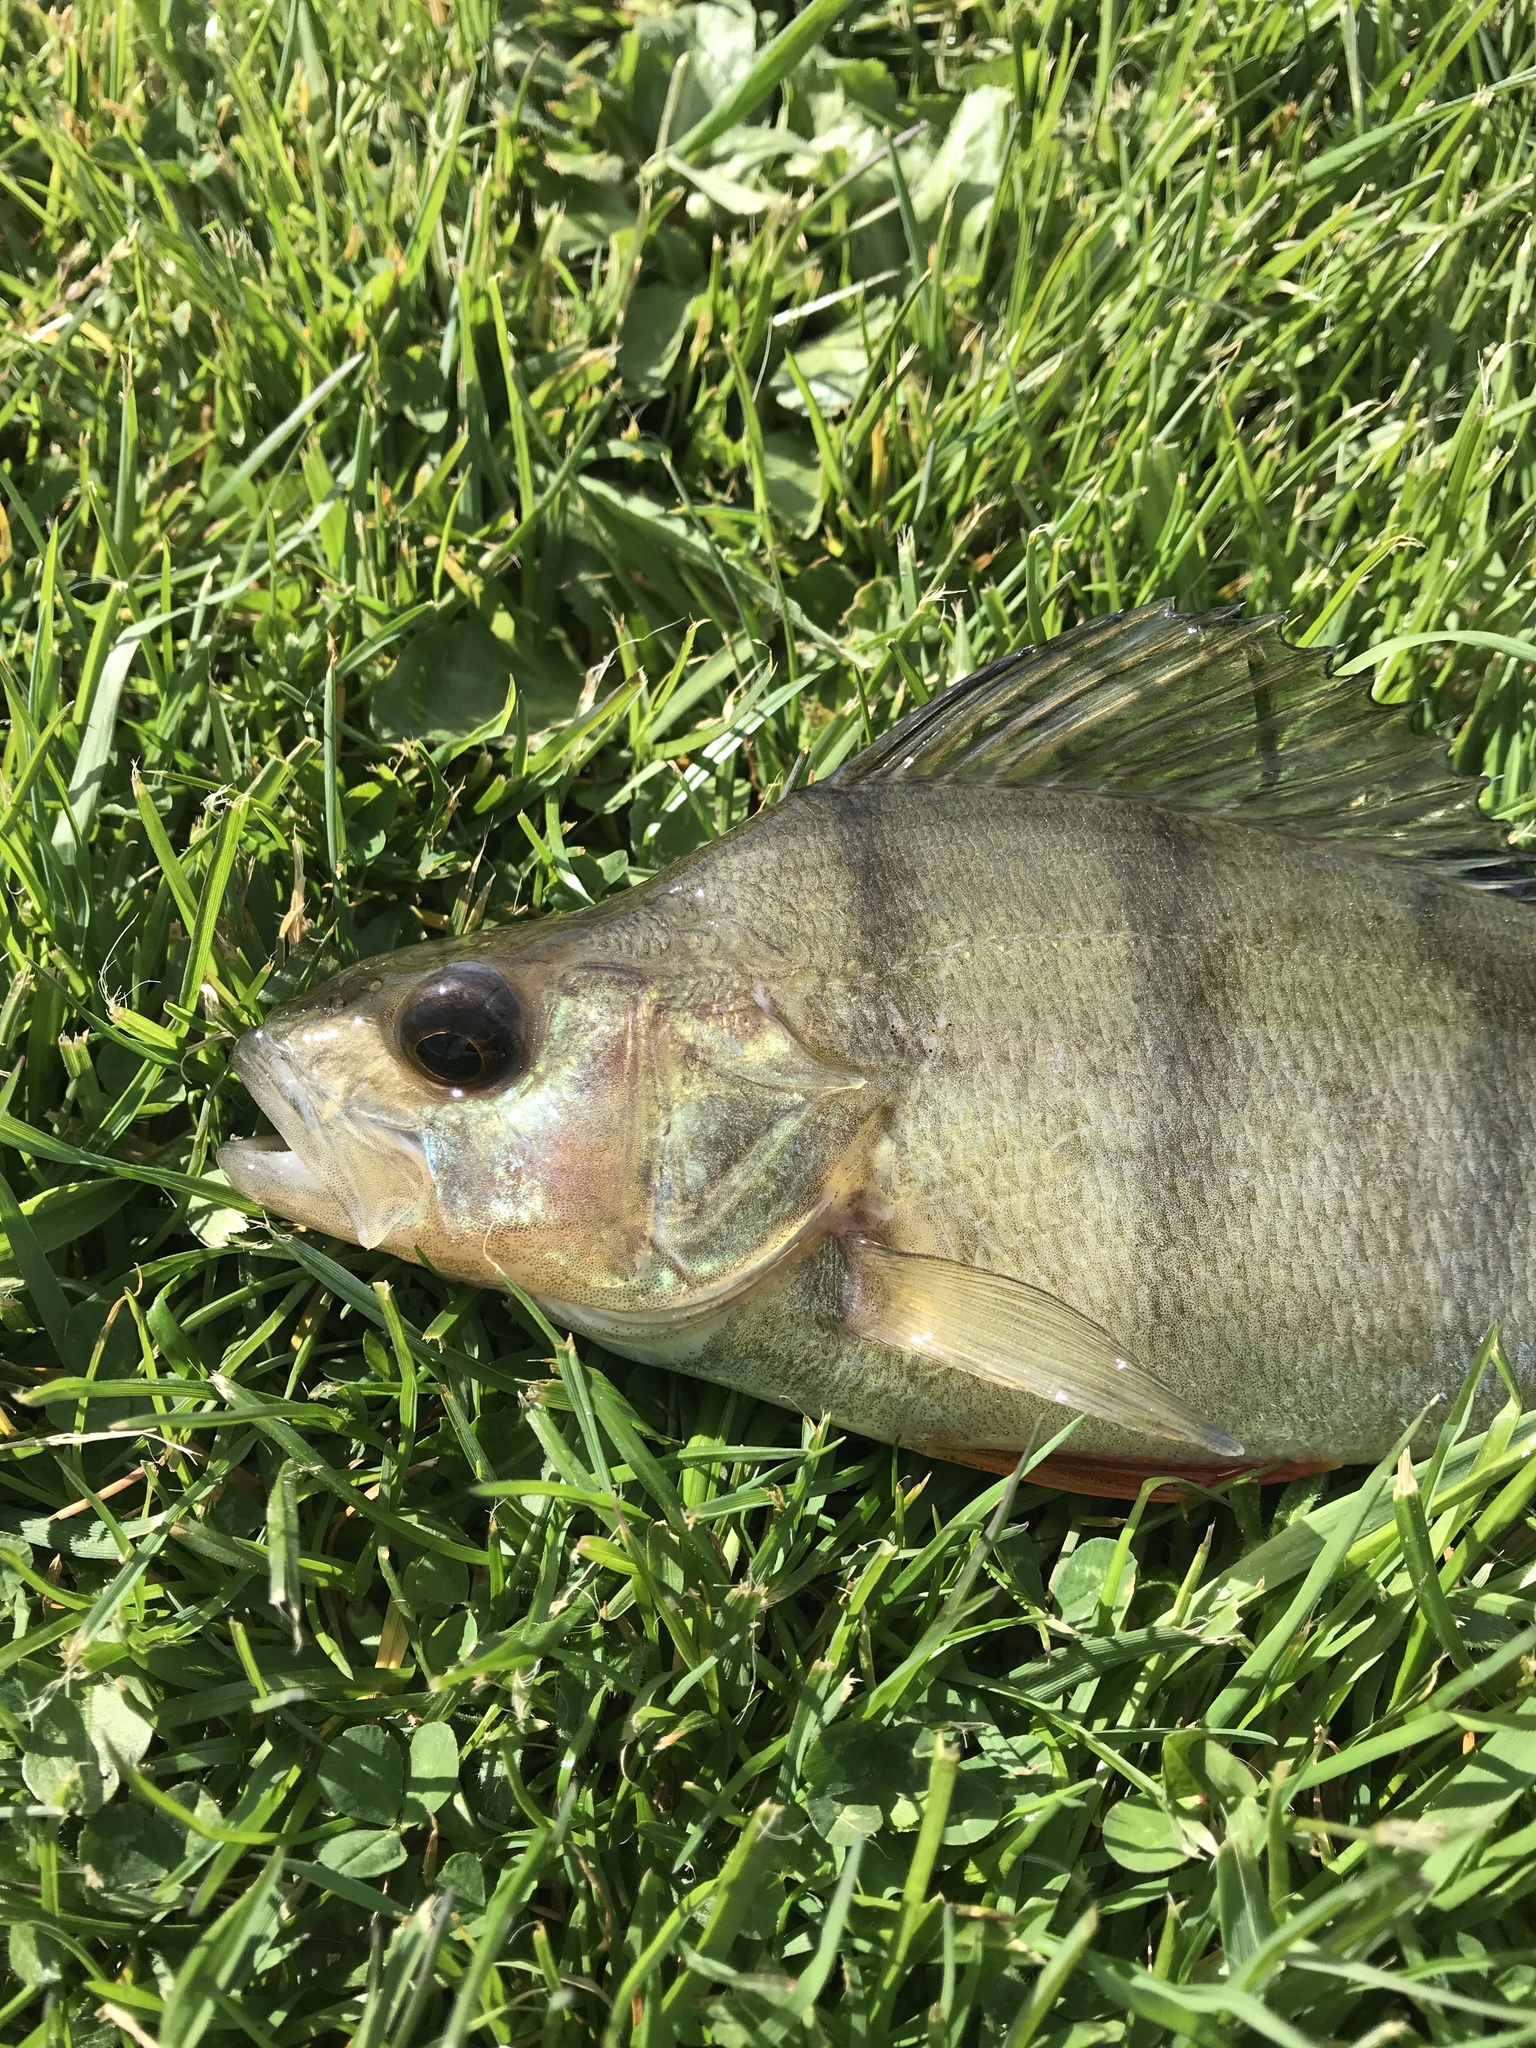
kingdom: Animalia
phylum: Chordata
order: Perciformes
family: Percidae
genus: Perca
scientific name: Perca fluviatilis
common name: Perch
